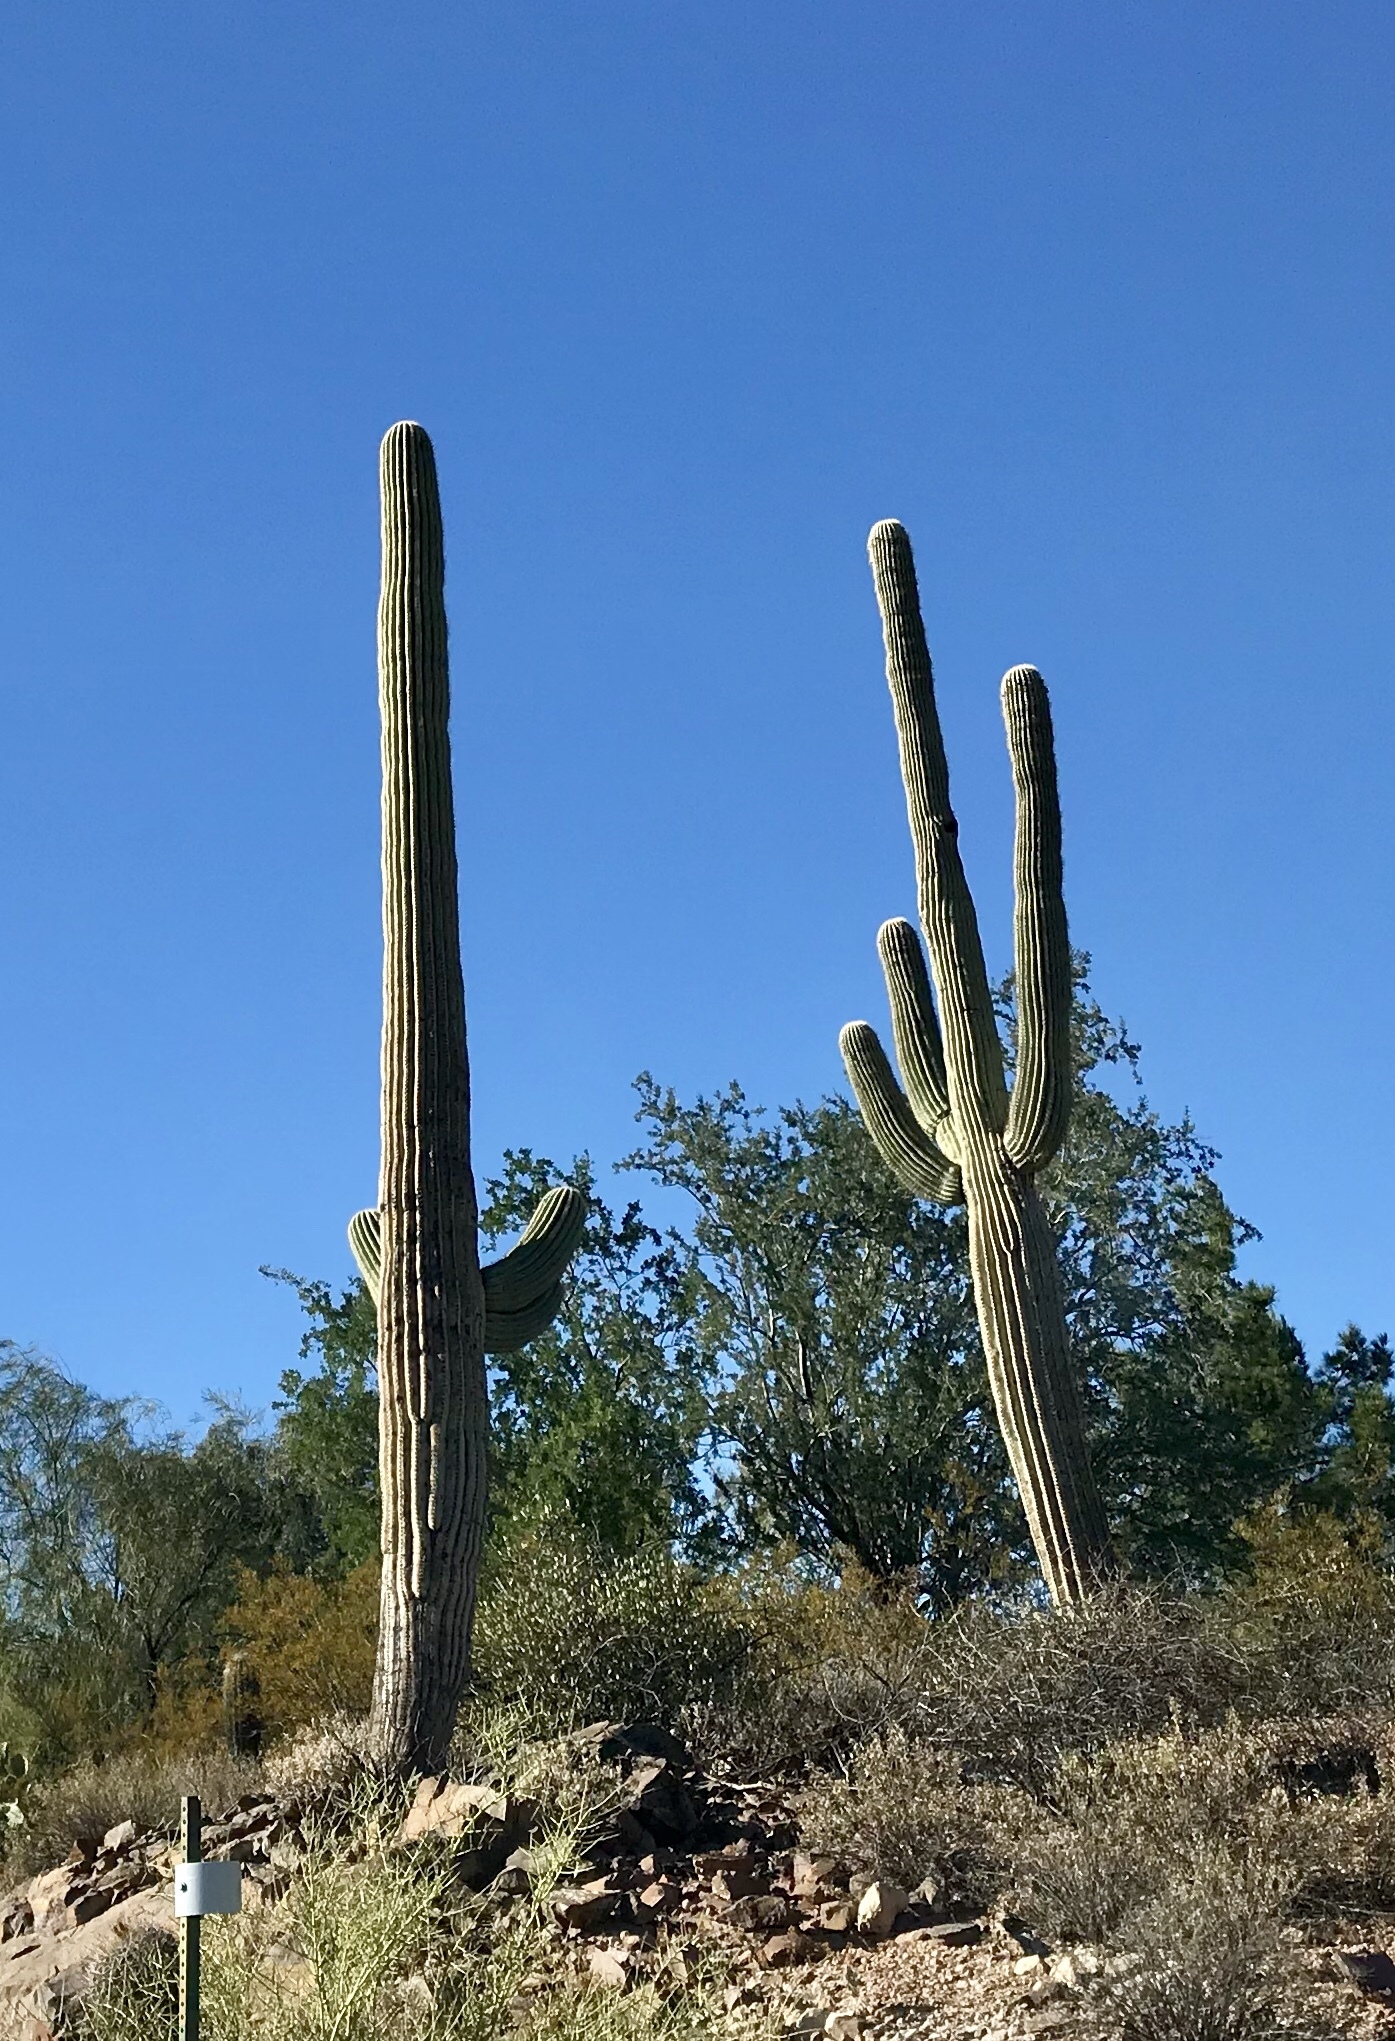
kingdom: Plantae
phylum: Tracheophyta
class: Magnoliopsida
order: Caryophyllales
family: Cactaceae
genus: Carnegiea
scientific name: Carnegiea gigantea
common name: Saguaro
